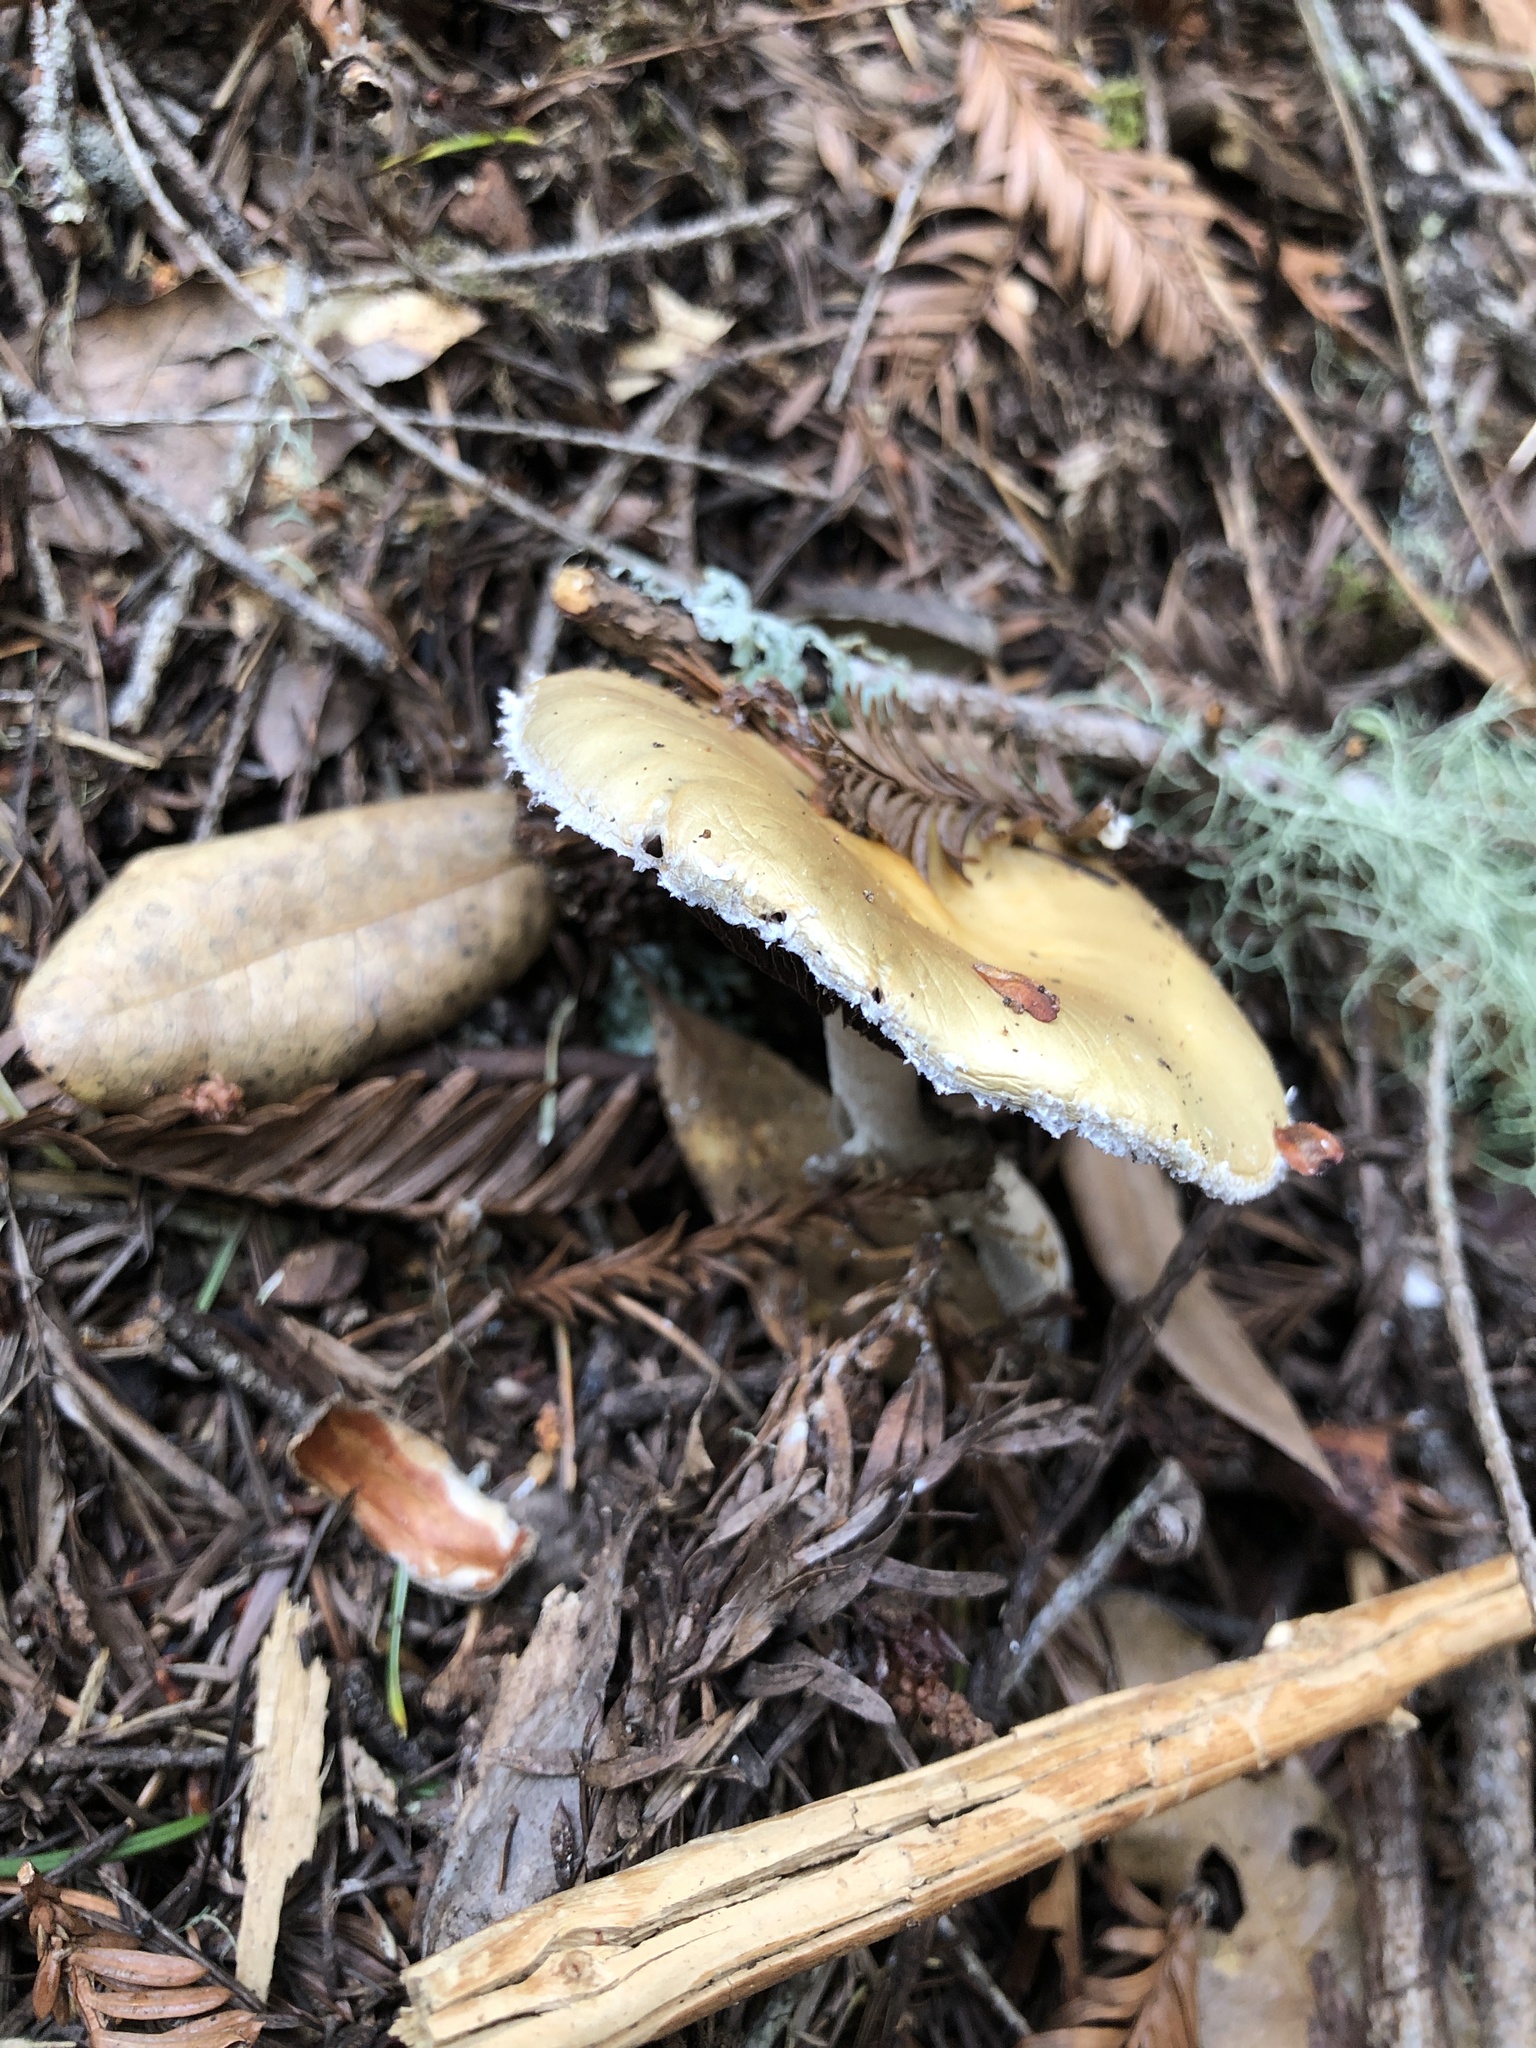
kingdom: Fungi
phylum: Basidiomycota
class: Agaricomycetes
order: Agaricales
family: Strophariaceae
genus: Stropharia
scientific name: Stropharia ambigua
